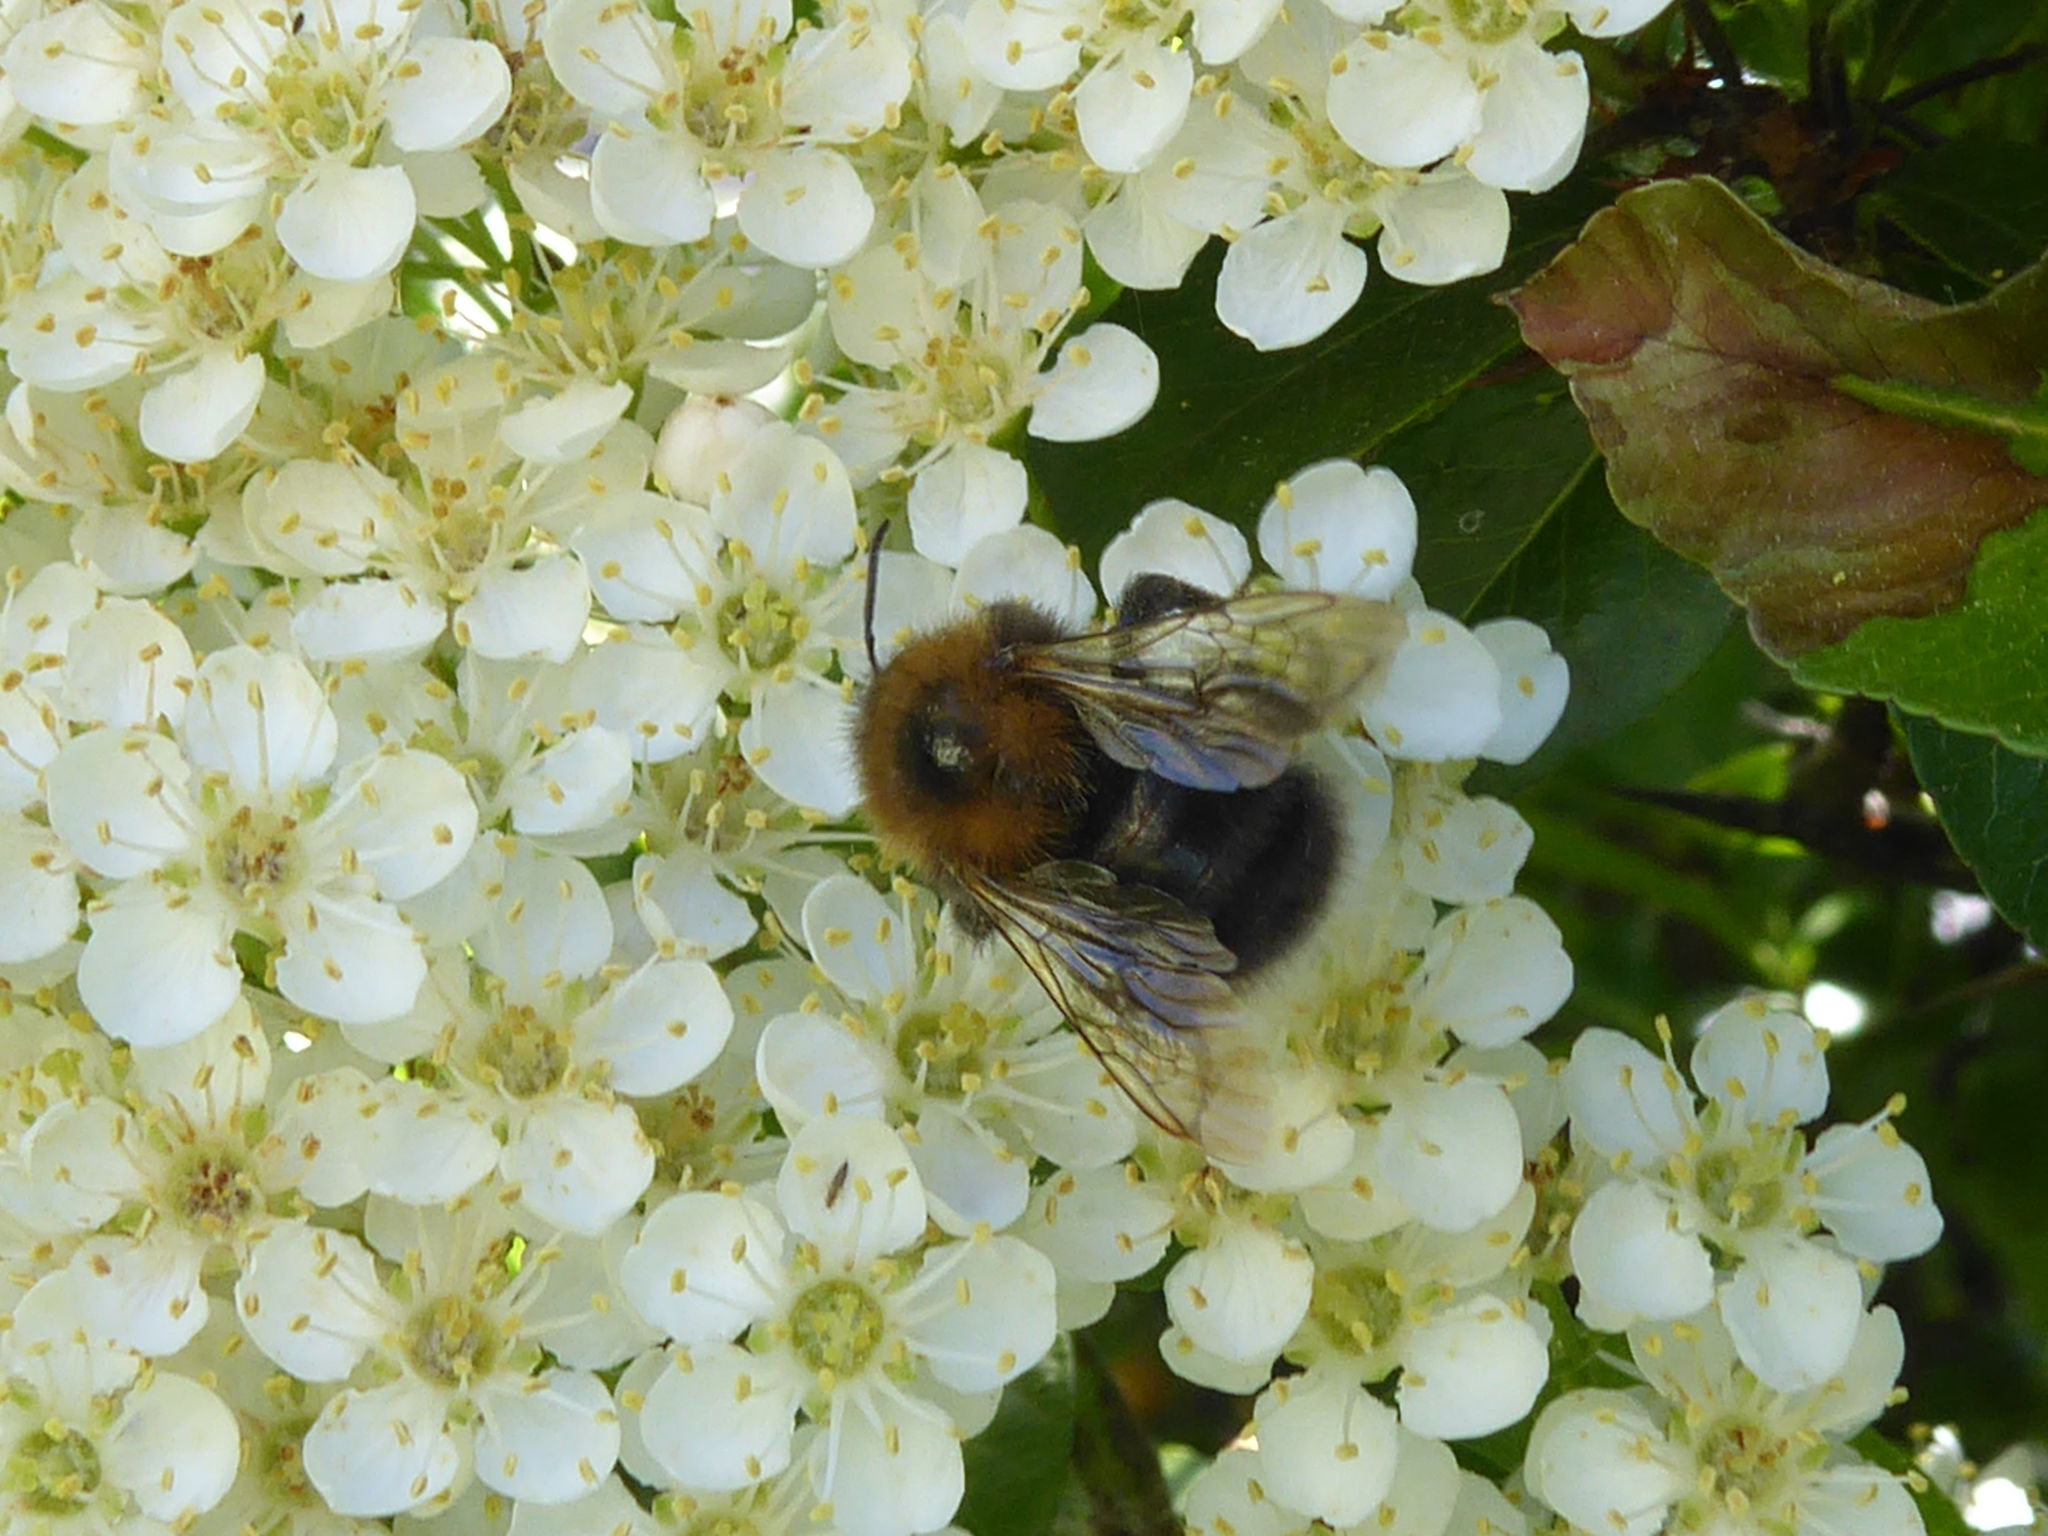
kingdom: Animalia
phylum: Arthropoda
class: Insecta
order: Hymenoptera
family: Apidae
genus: Bombus
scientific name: Bombus hypnorum
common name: New garden bumblebee
